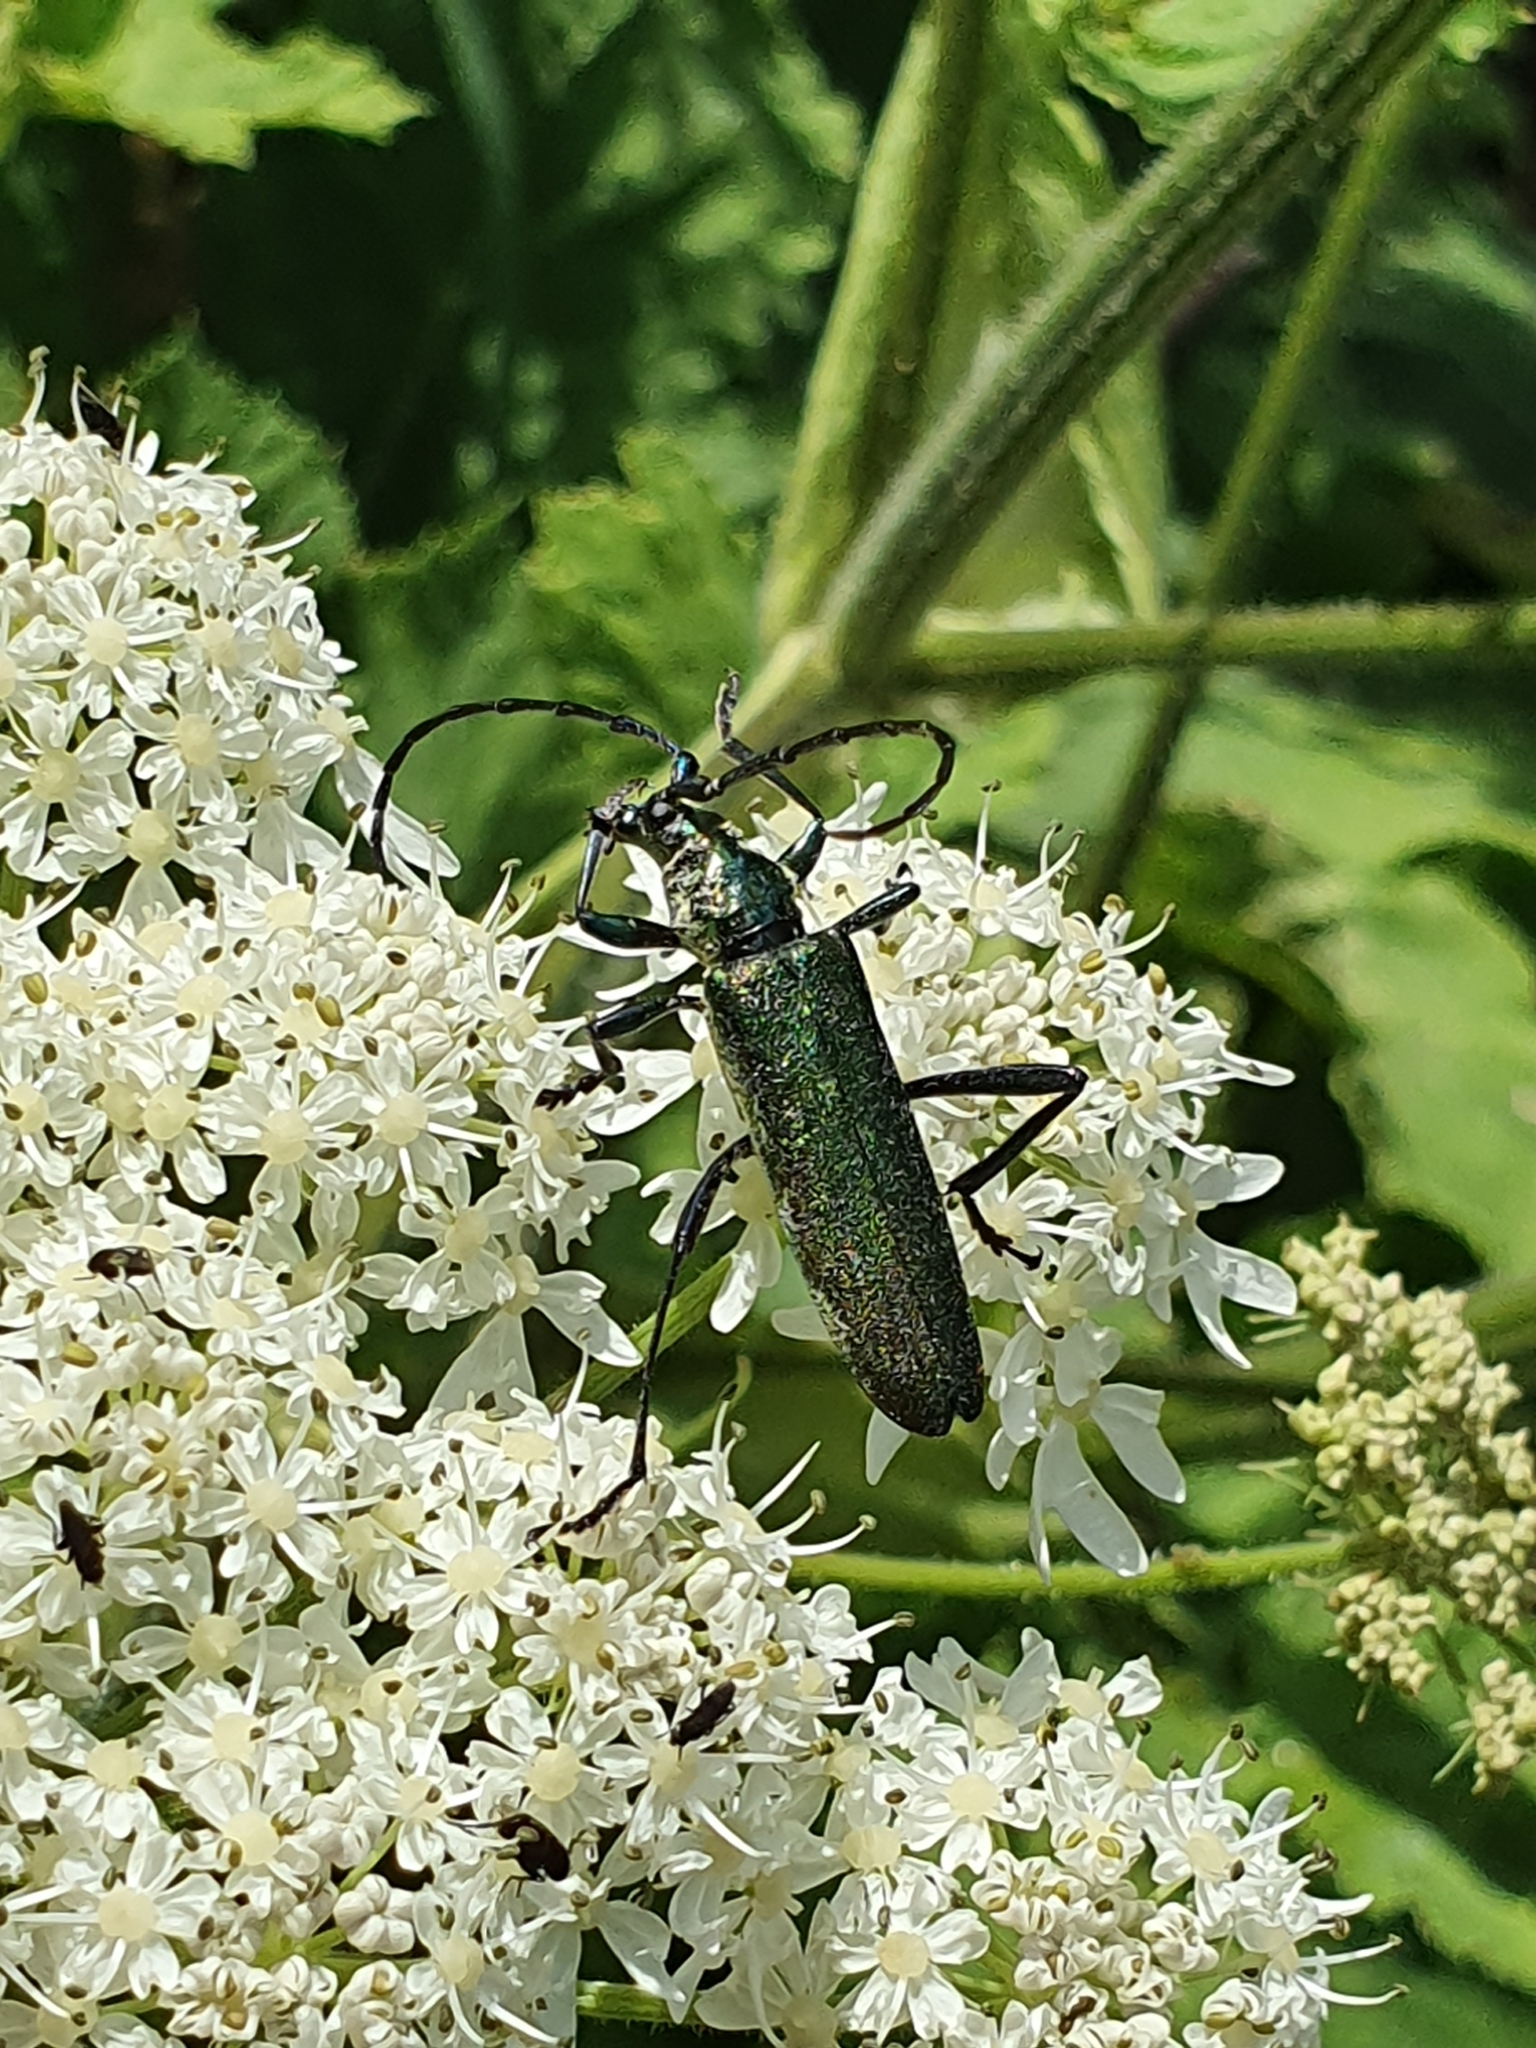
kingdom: Animalia
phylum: Arthropoda
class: Insecta
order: Coleoptera
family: Cerambycidae
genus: Aromia
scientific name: Aromia moschata
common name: Musk beetle
